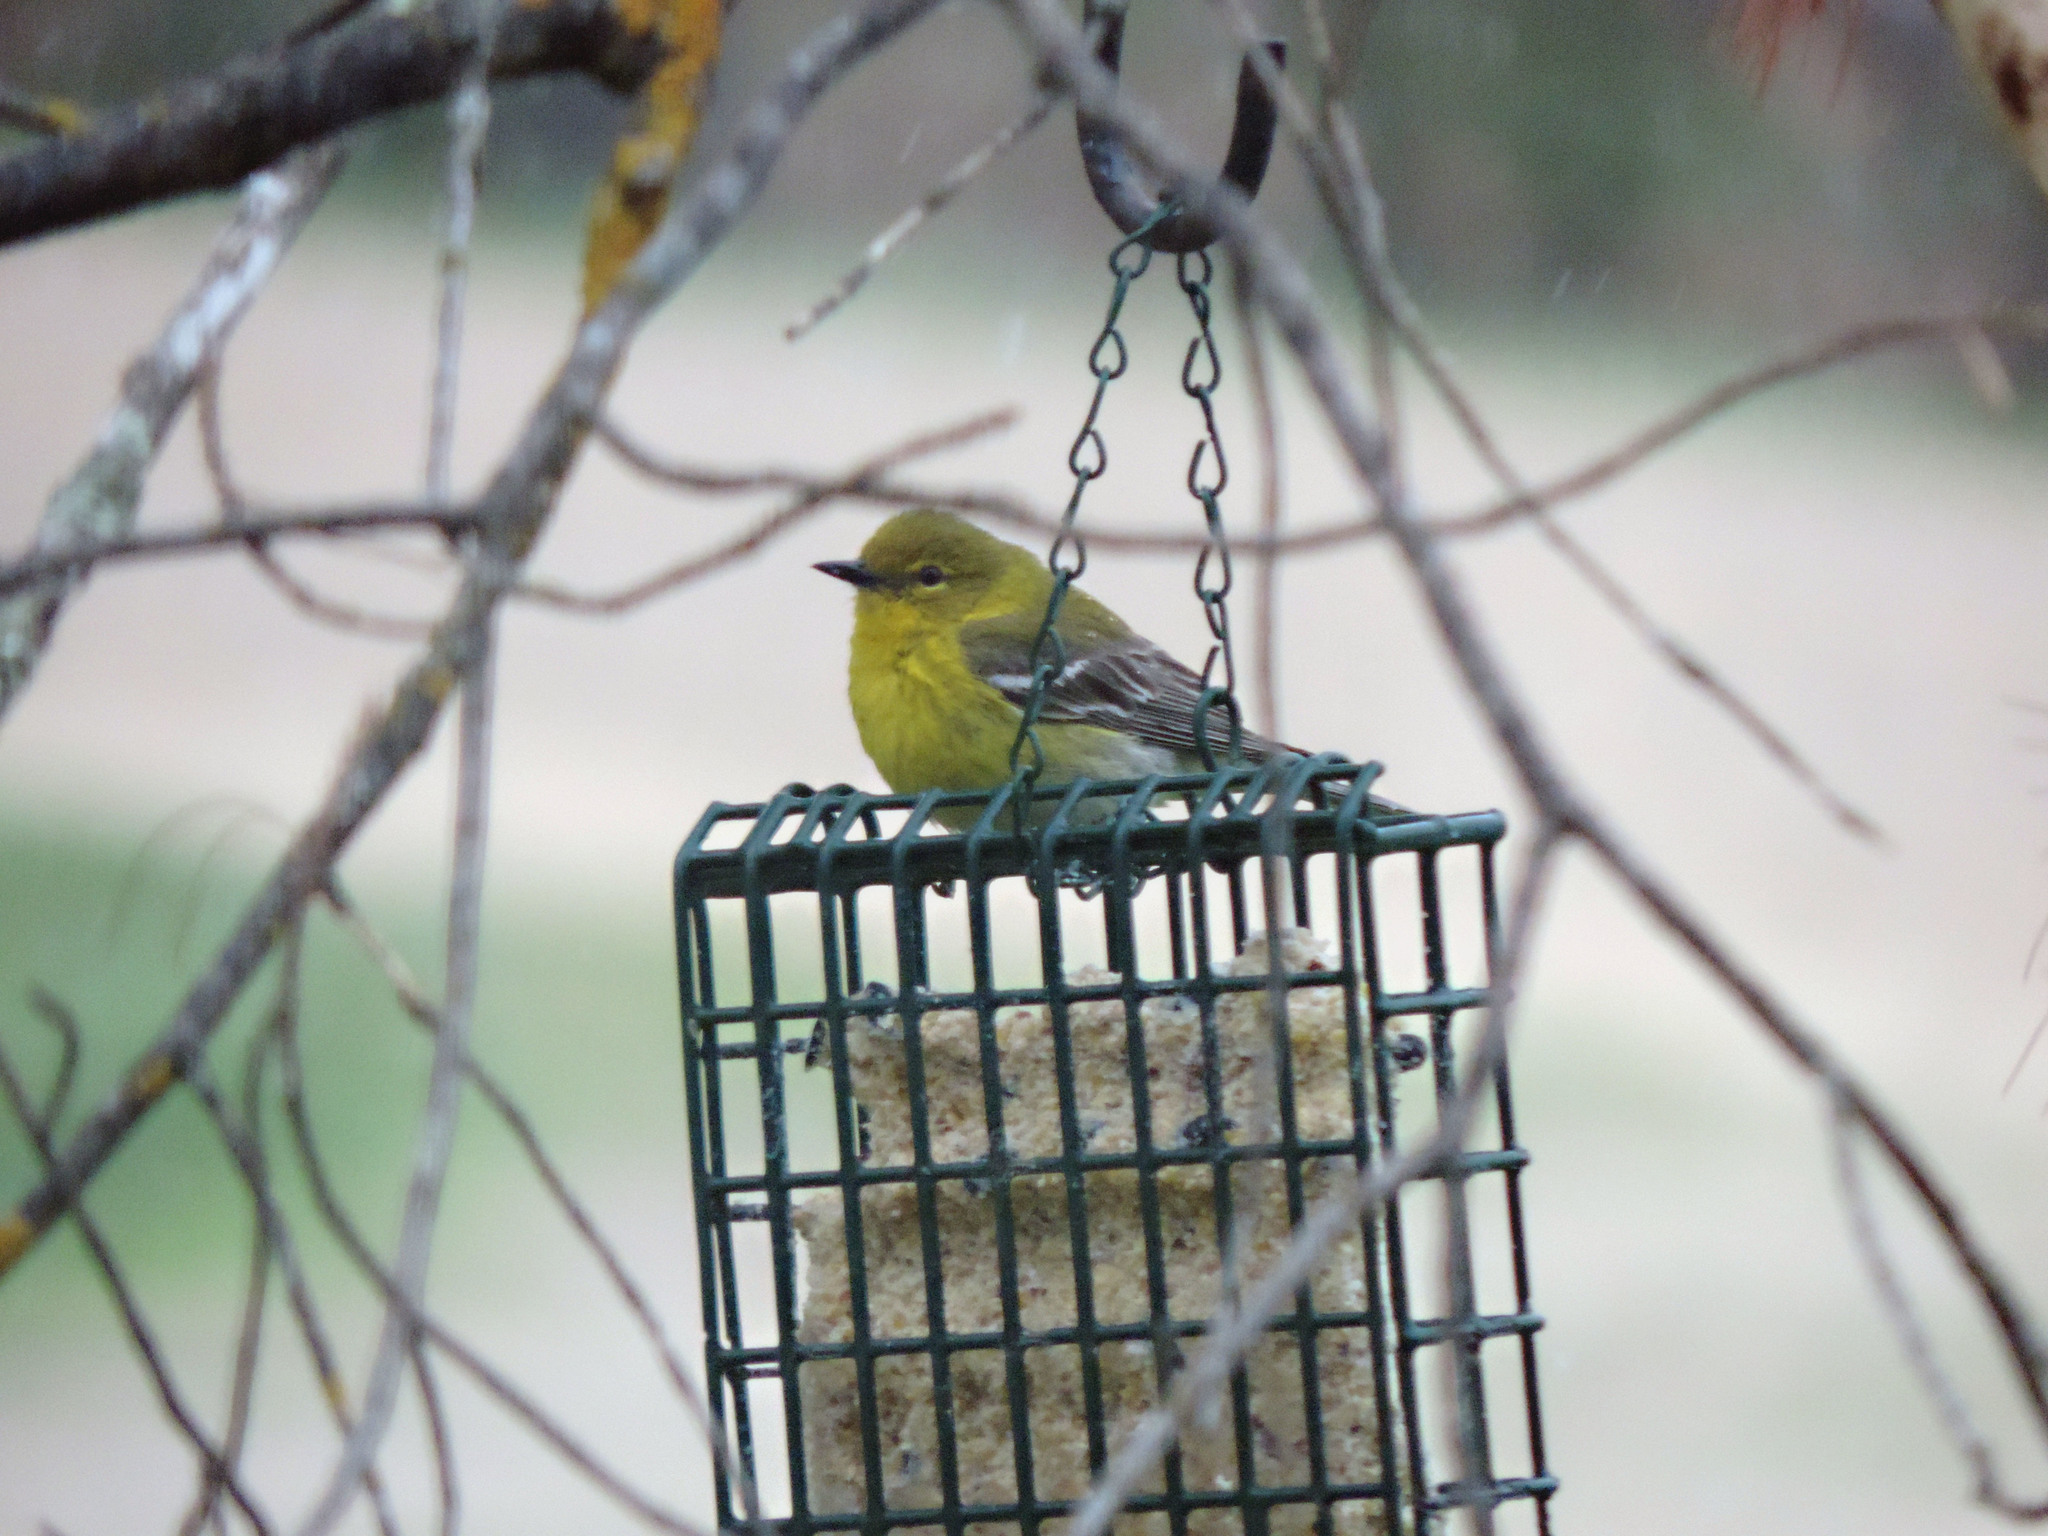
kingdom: Animalia
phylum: Chordata
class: Aves
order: Passeriformes
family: Parulidae
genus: Setophaga
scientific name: Setophaga pinus
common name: Pine warbler
